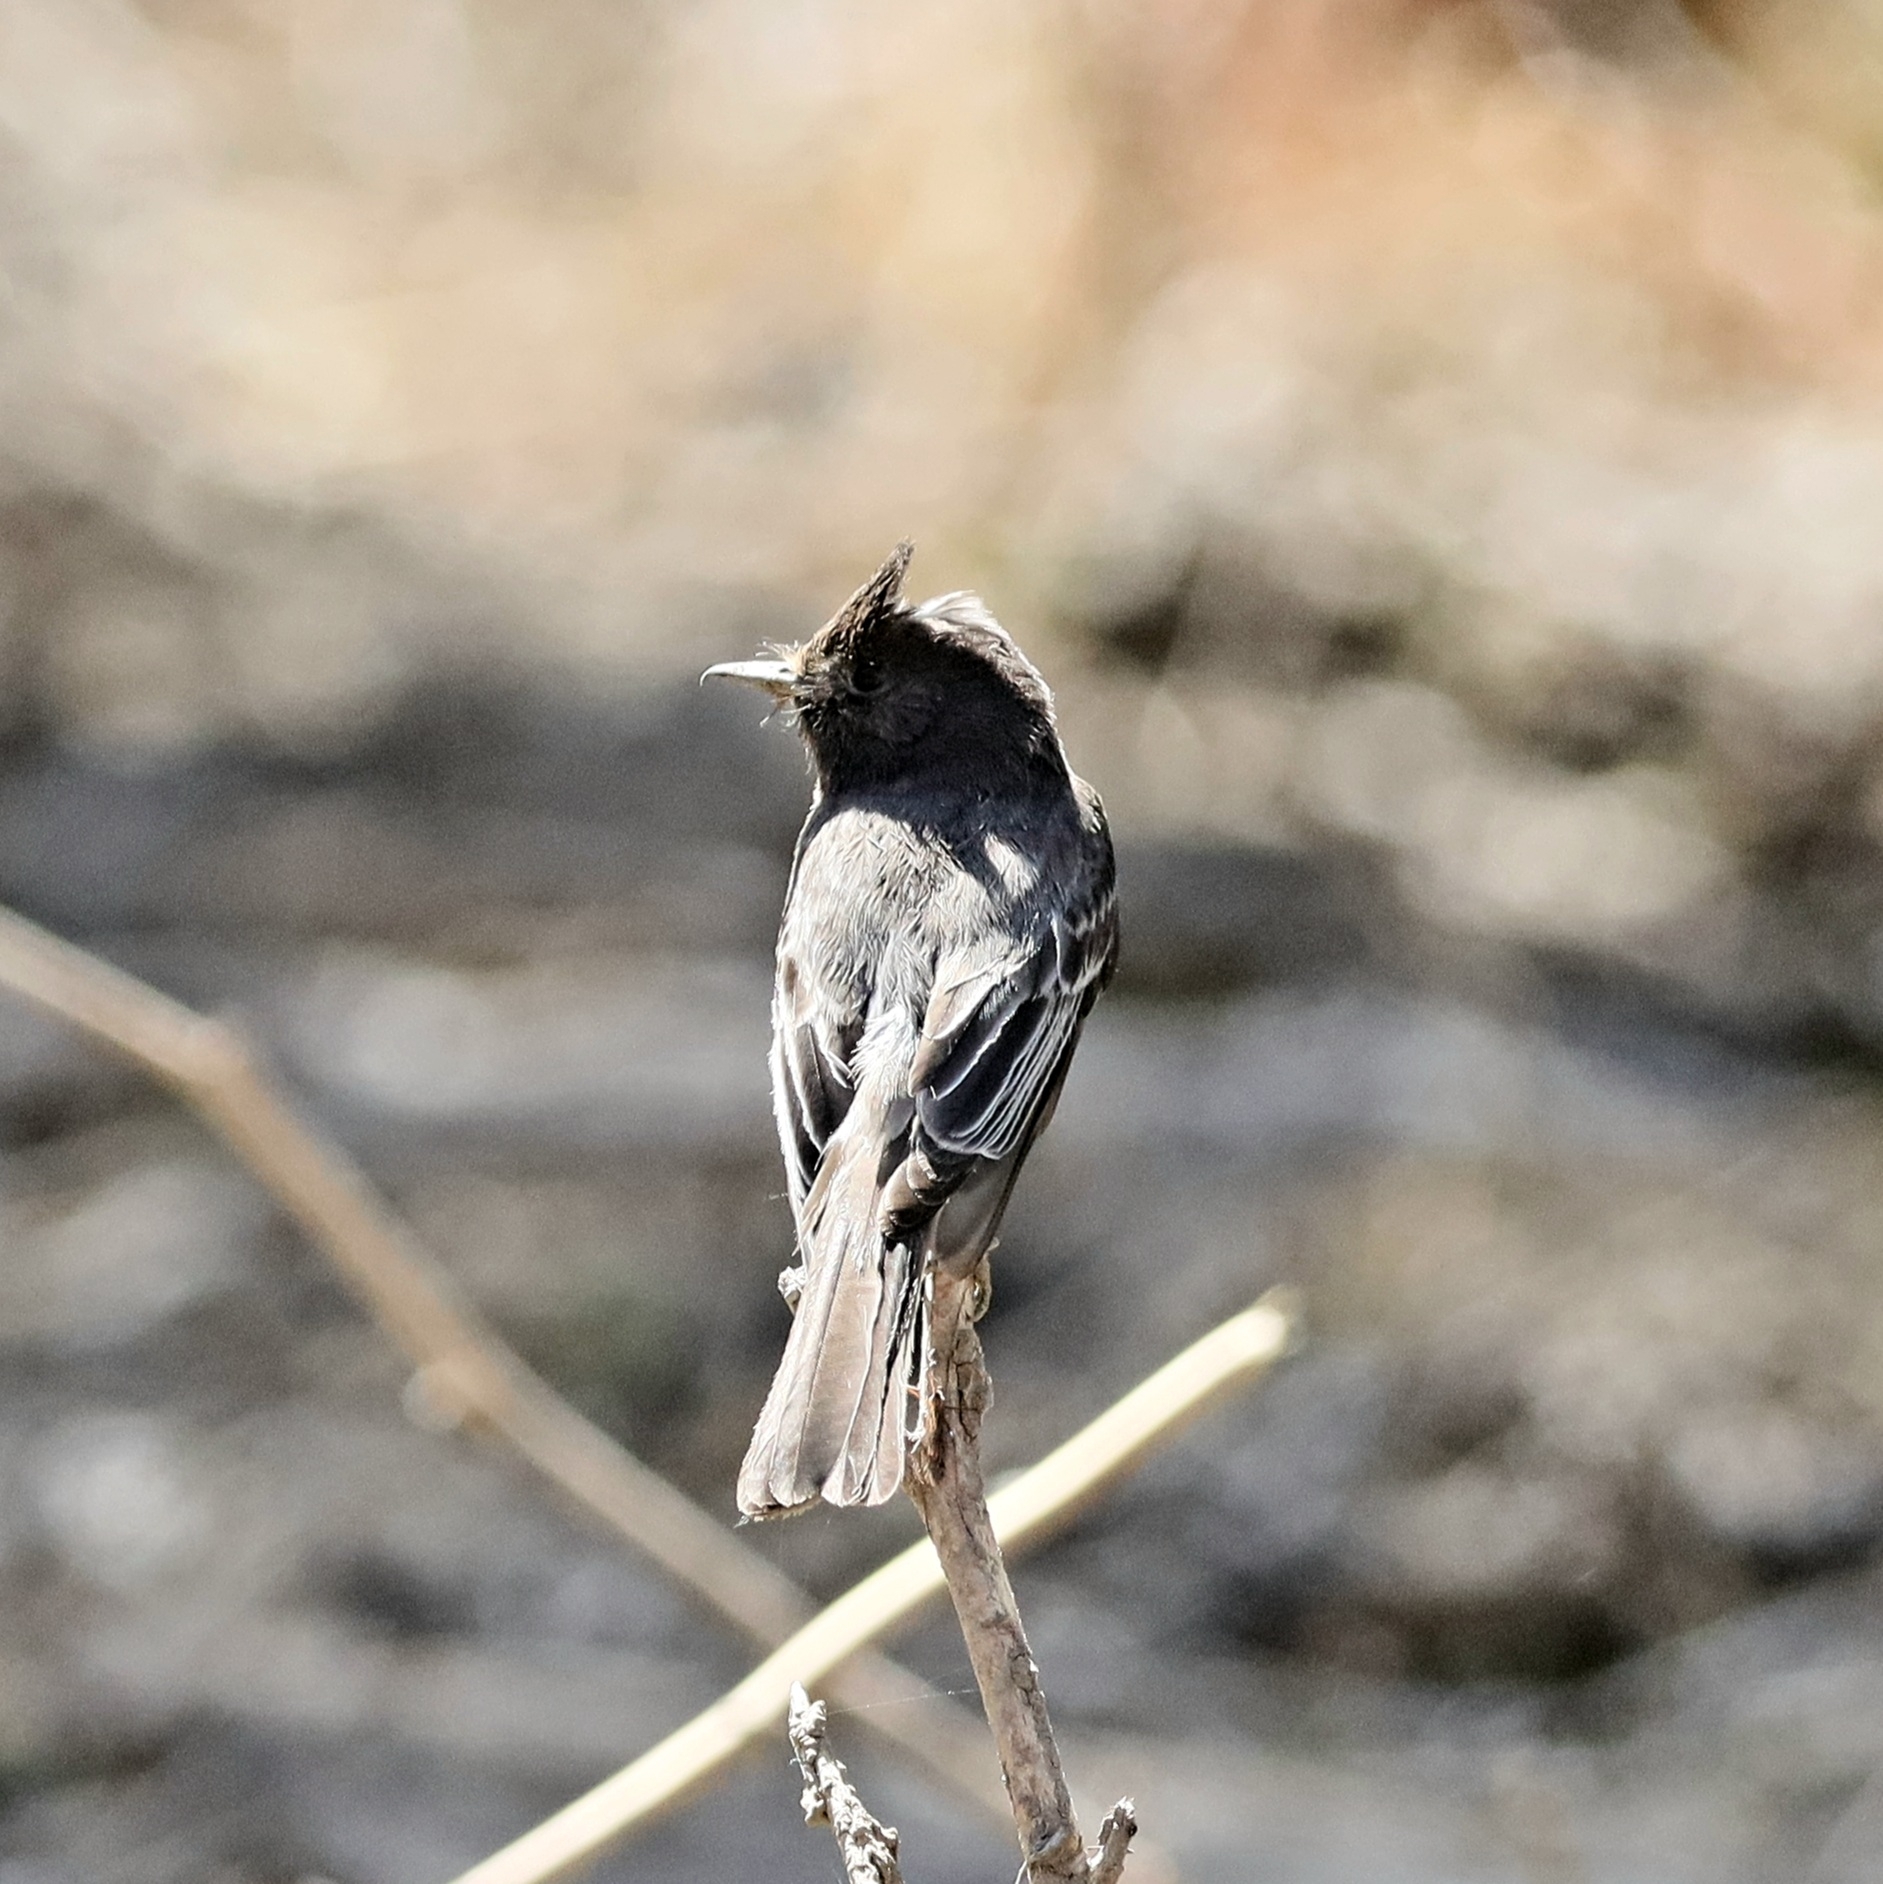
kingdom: Animalia
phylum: Chordata
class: Aves
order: Passeriformes
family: Tyrannidae
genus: Sayornis
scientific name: Sayornis nigricans
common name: Black phoebe
